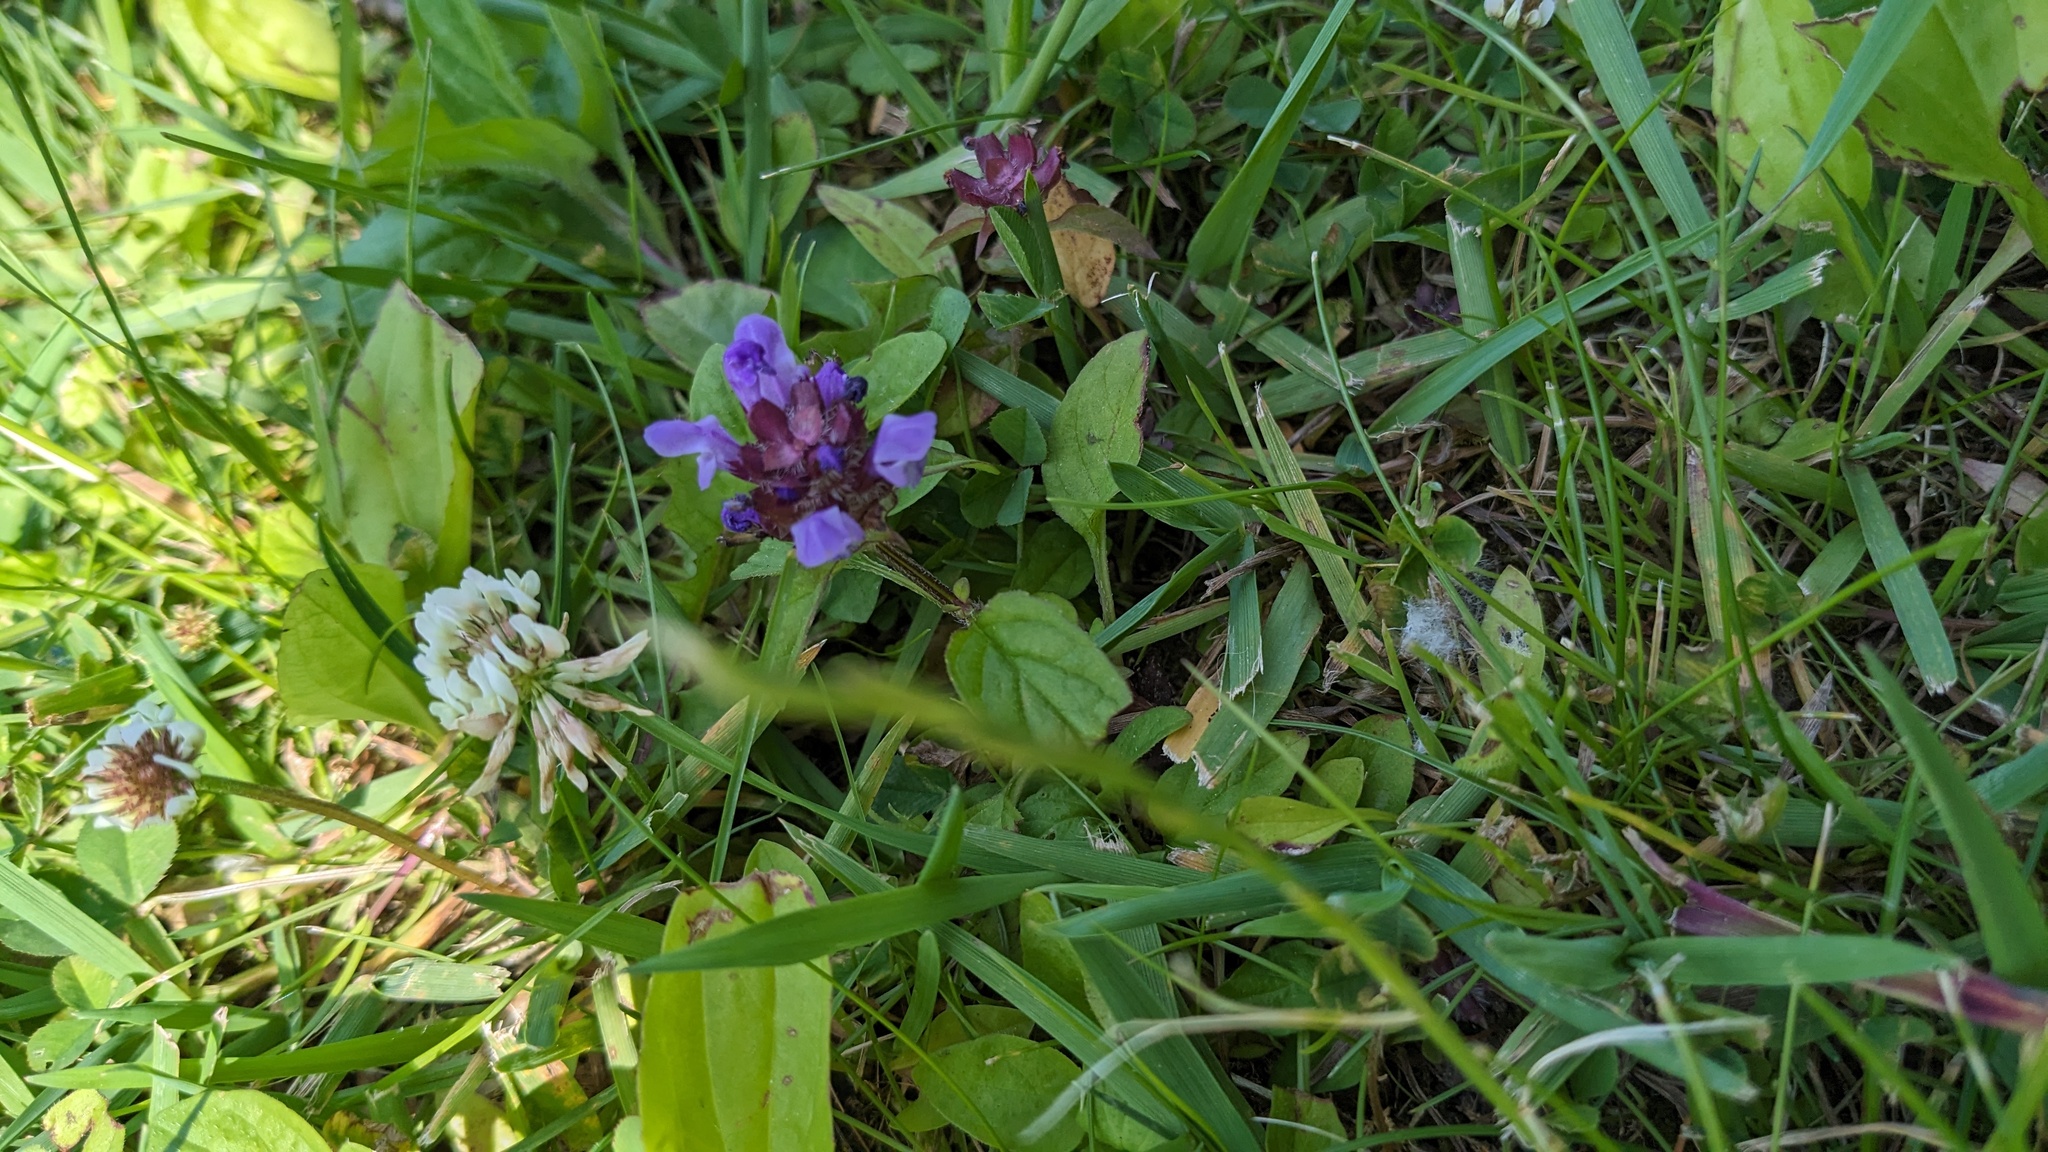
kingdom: Plantae
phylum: Tracheophyta
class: Magnoliopsida
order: Lamiales
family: Lamiaceae
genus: Prunella
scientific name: Prunella vulgaris
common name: Heal-all
